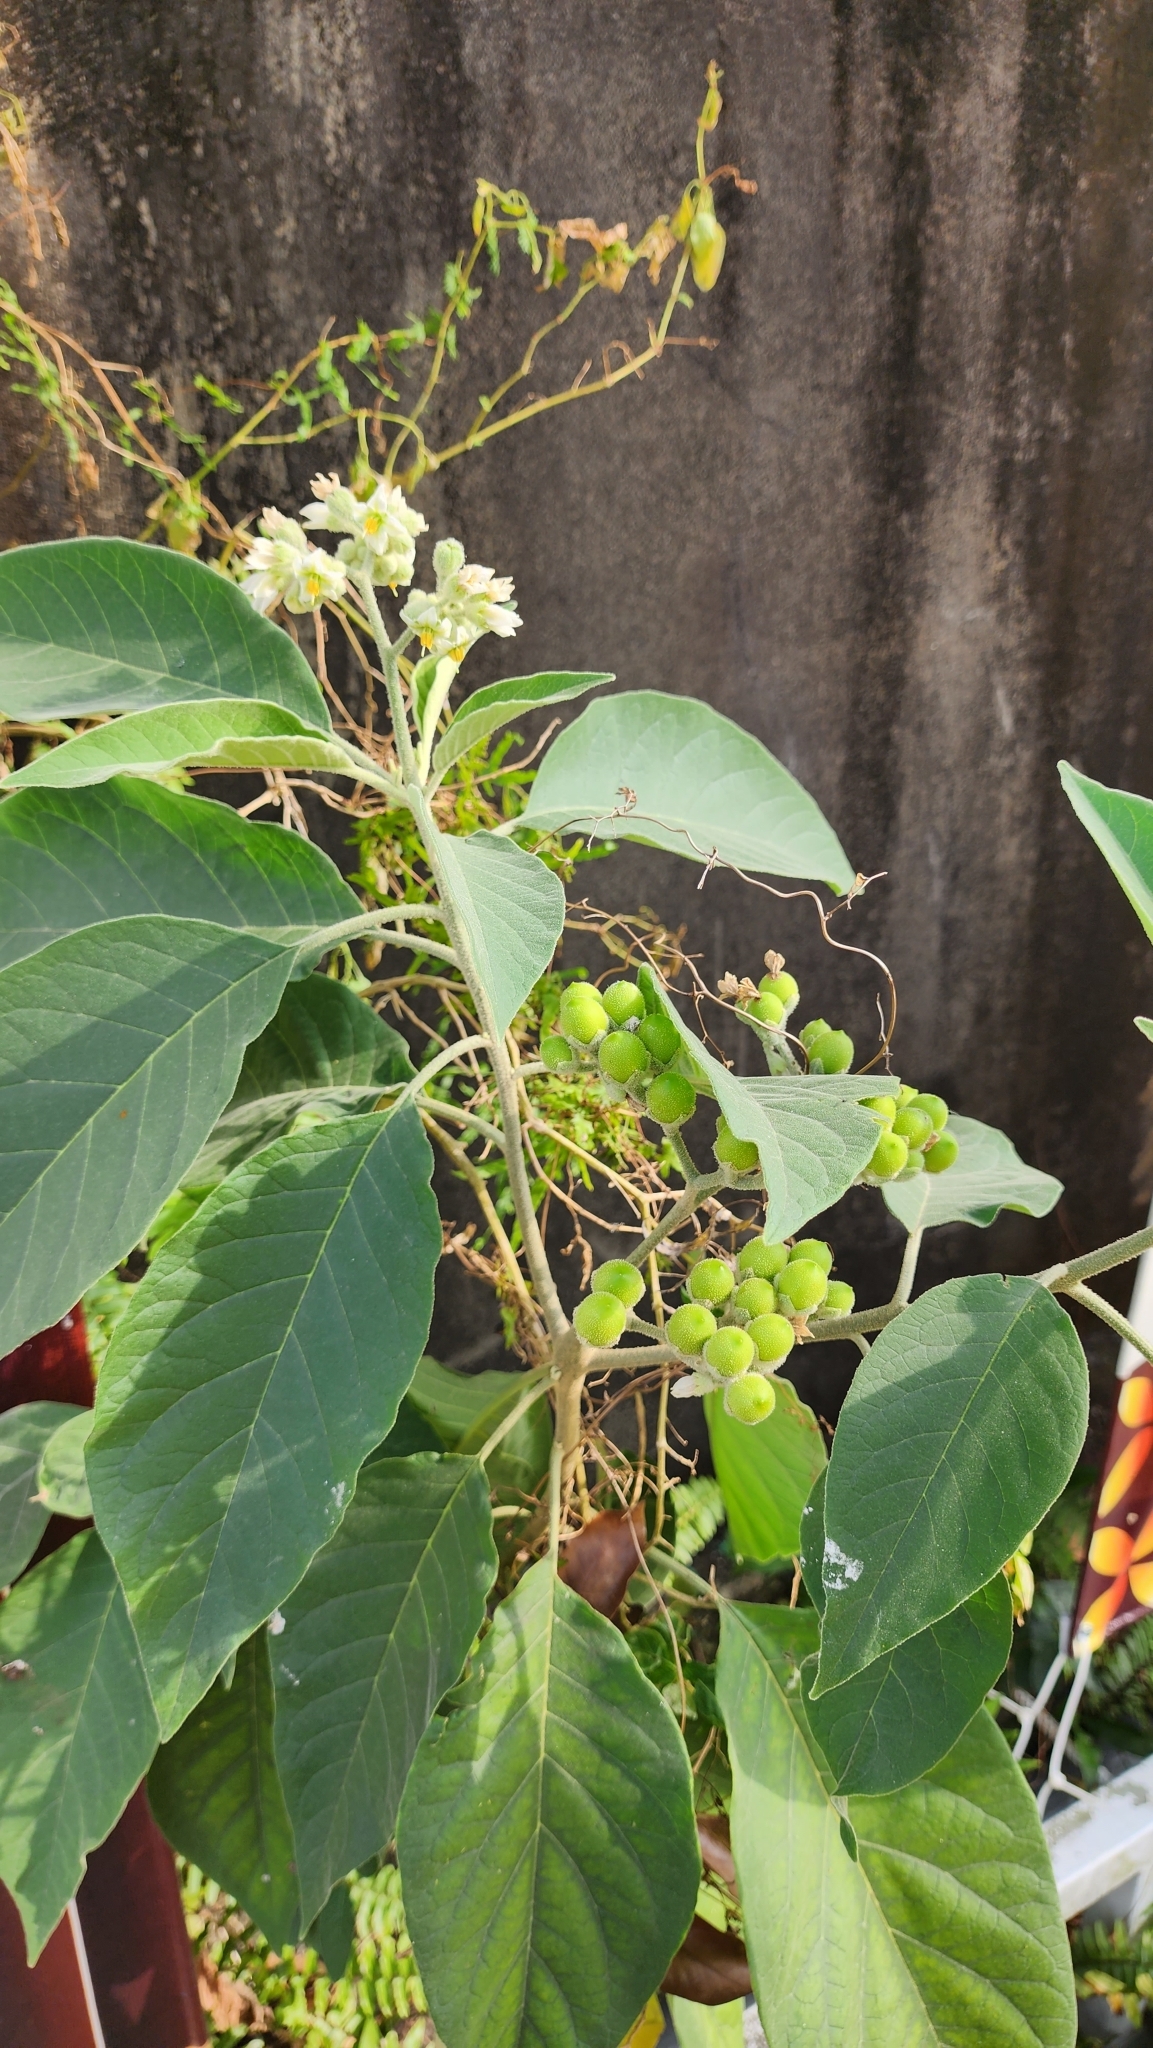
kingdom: Plantae
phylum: Tracheophyta
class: Magnoliopsida
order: Solanales
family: Solanaceae
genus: Solanum
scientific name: Solanum erianthum
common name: Tobacco-tree
